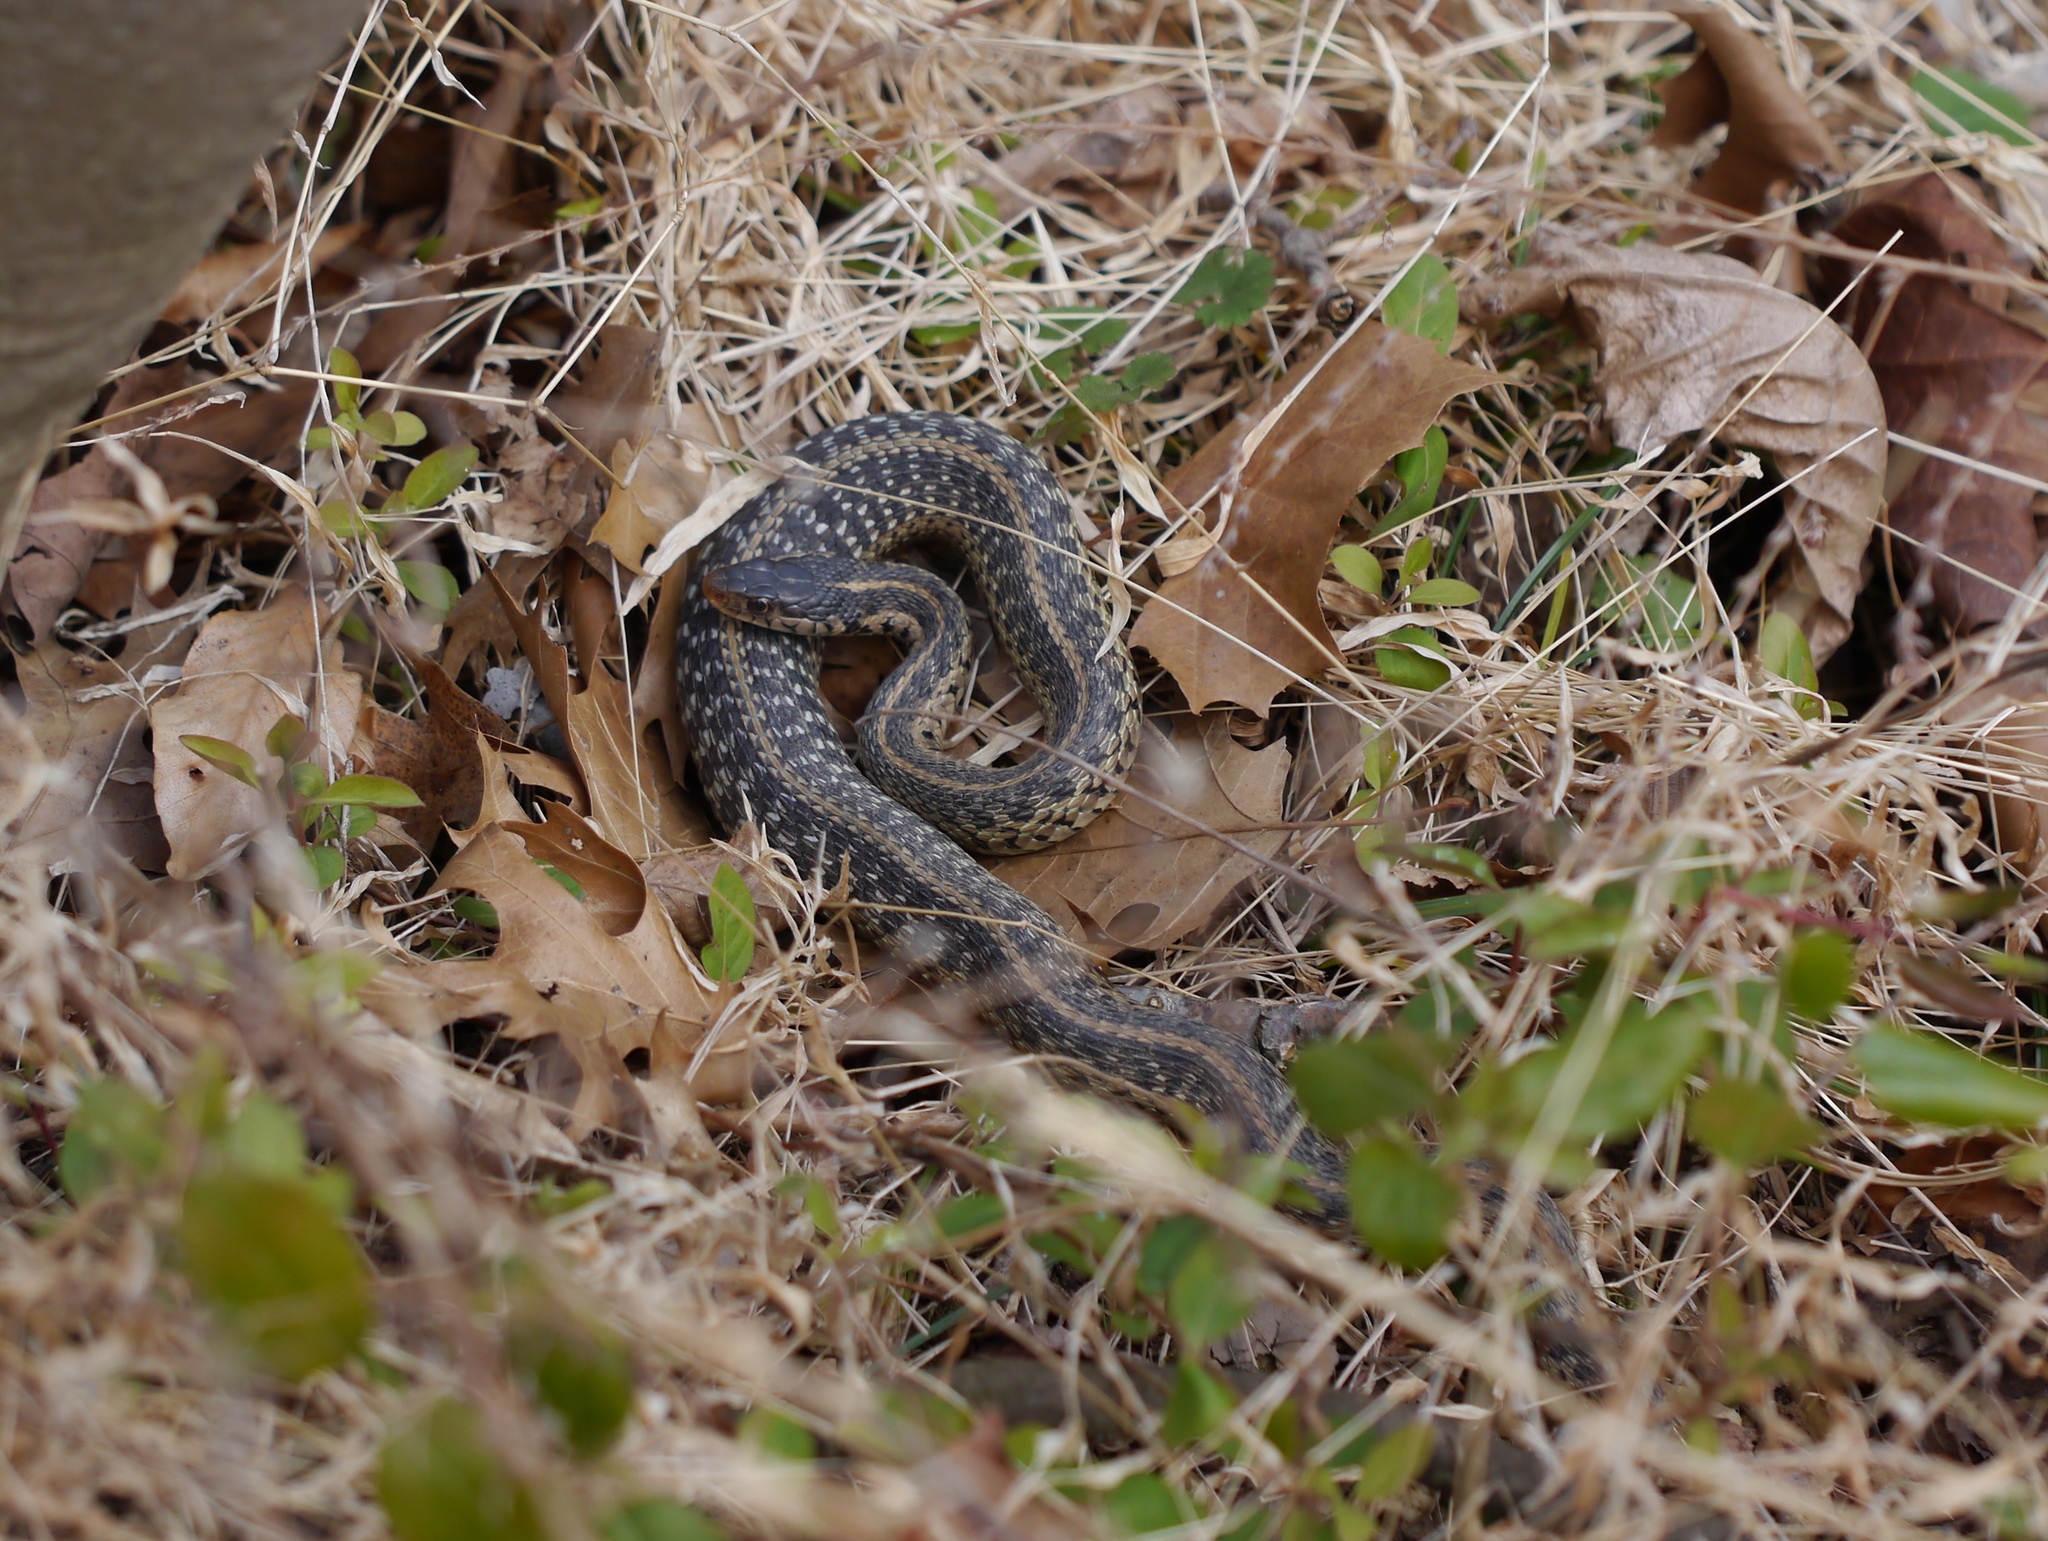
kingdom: Animalia
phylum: Chordata
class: Squamata
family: Colubridae
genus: Thamnophis
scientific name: Thamnophis sirtalis
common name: Common garter snake
